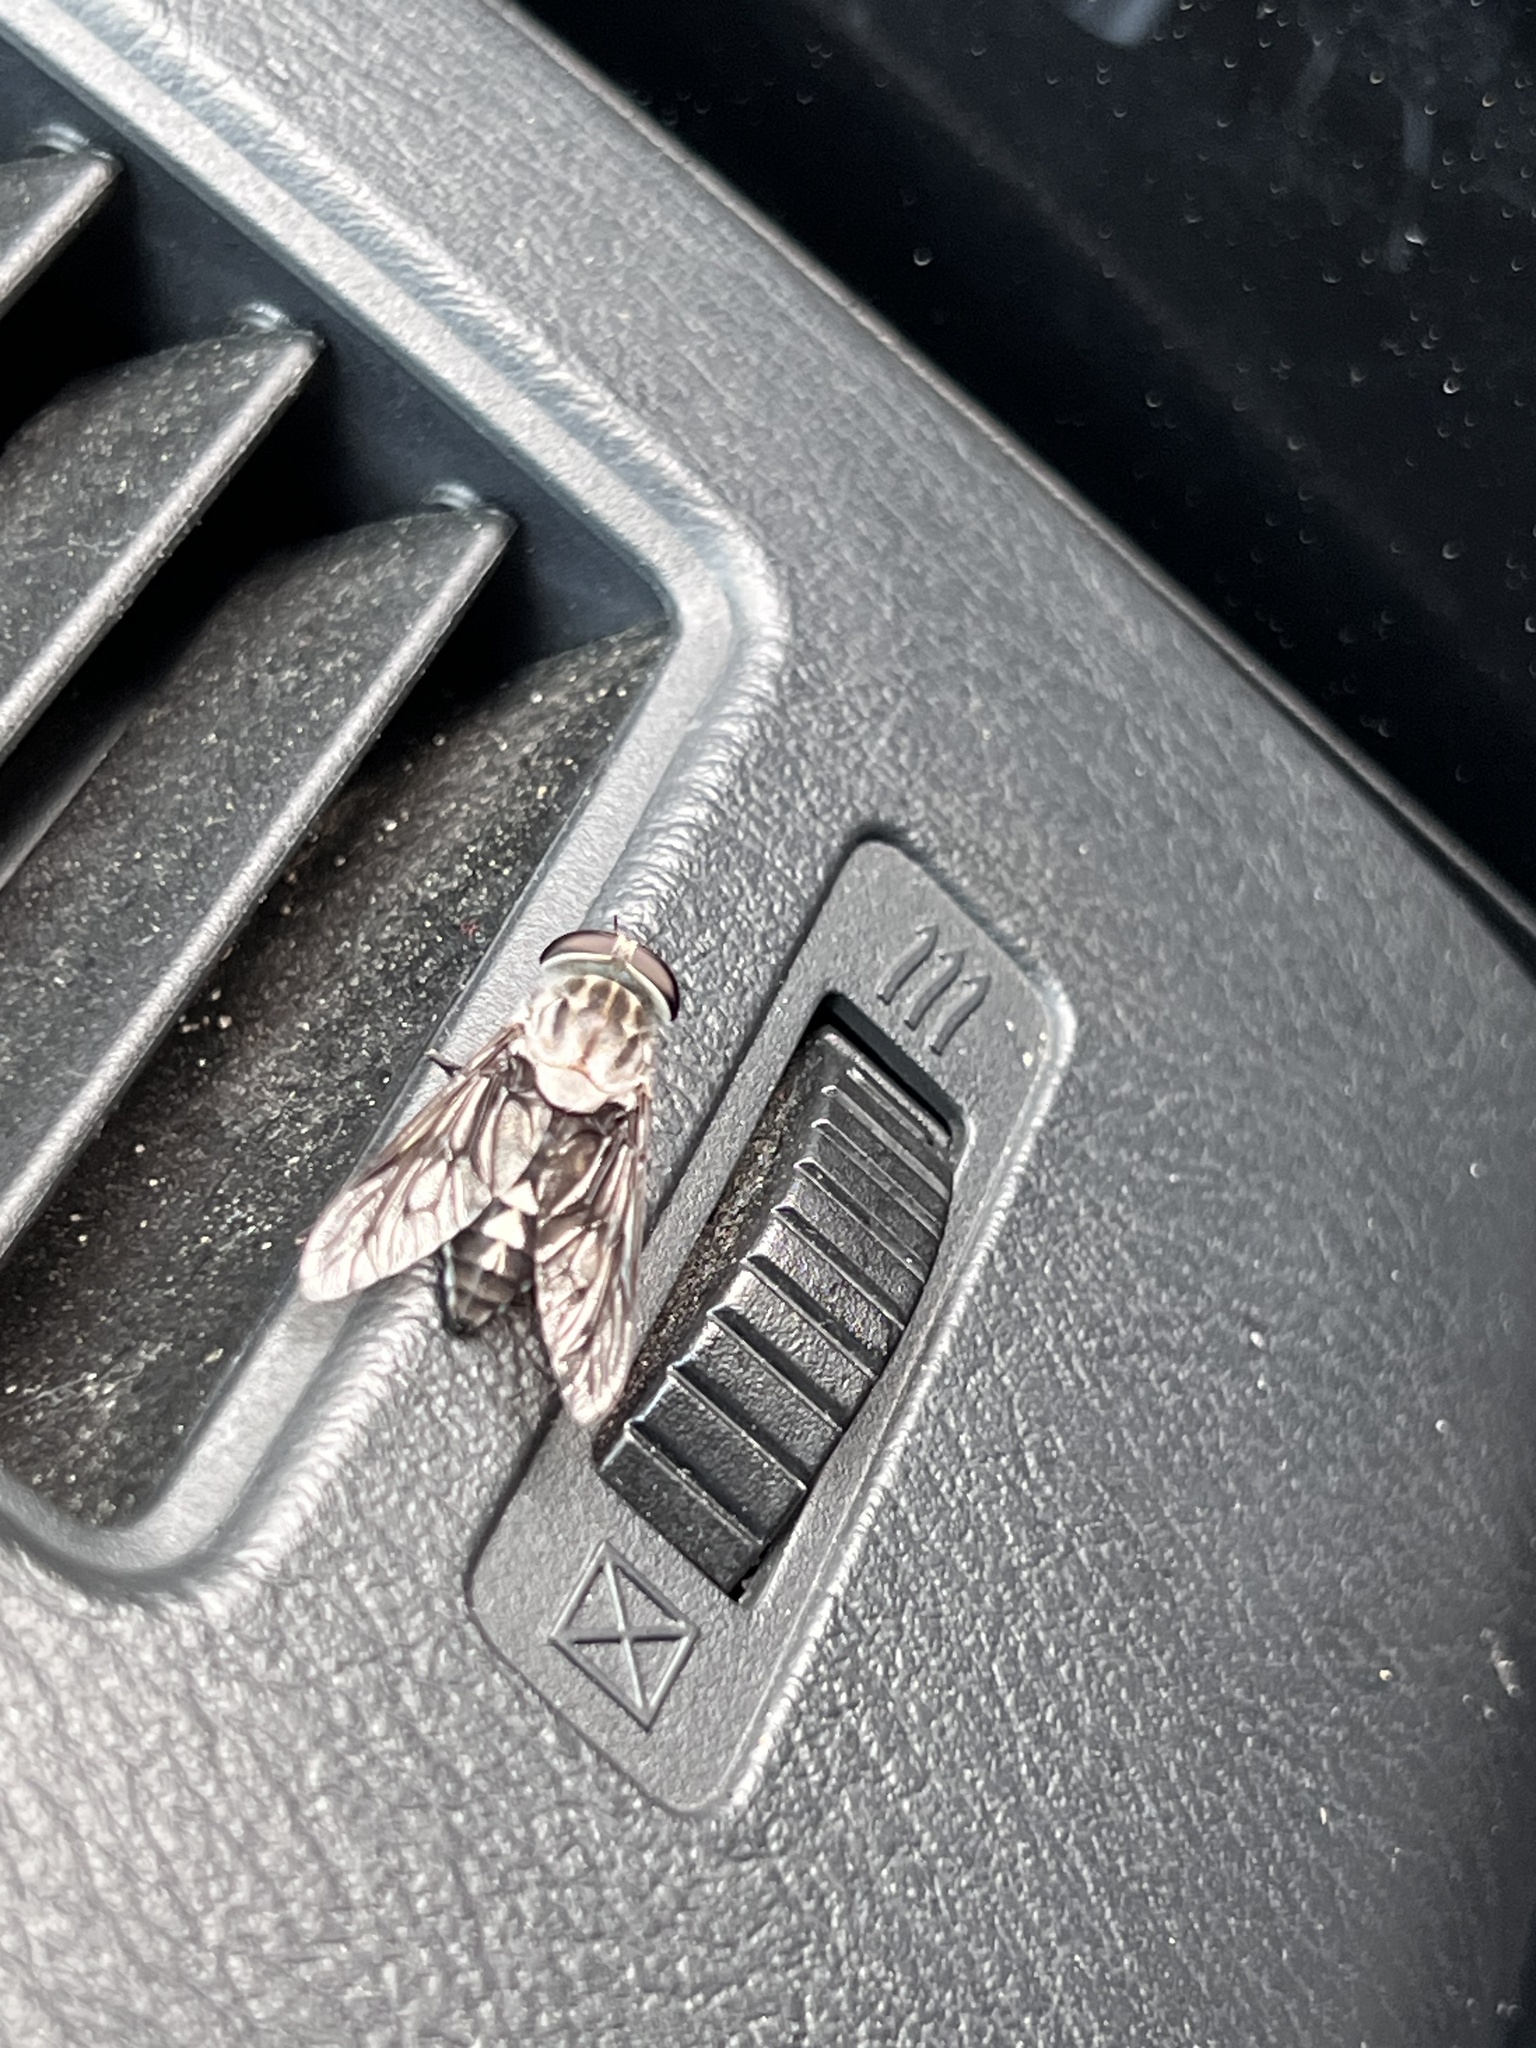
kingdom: Animalia
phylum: Arthropoda
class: Insecta
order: Diptera
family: Tabanidae
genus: Tabanus
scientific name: Tabanus trimaculatus
